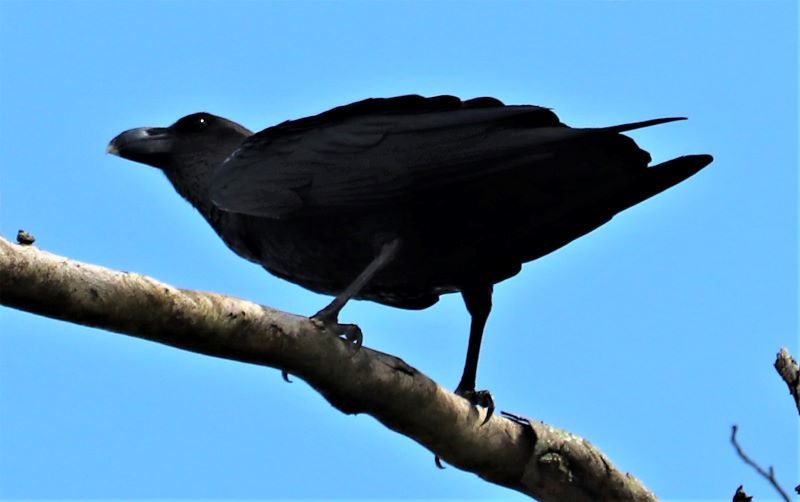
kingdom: Animalia
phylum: Chordata
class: Aves
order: Passeriformes
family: Corvidae
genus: Corvus
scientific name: Corvus albicollis
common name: White-necked raven
